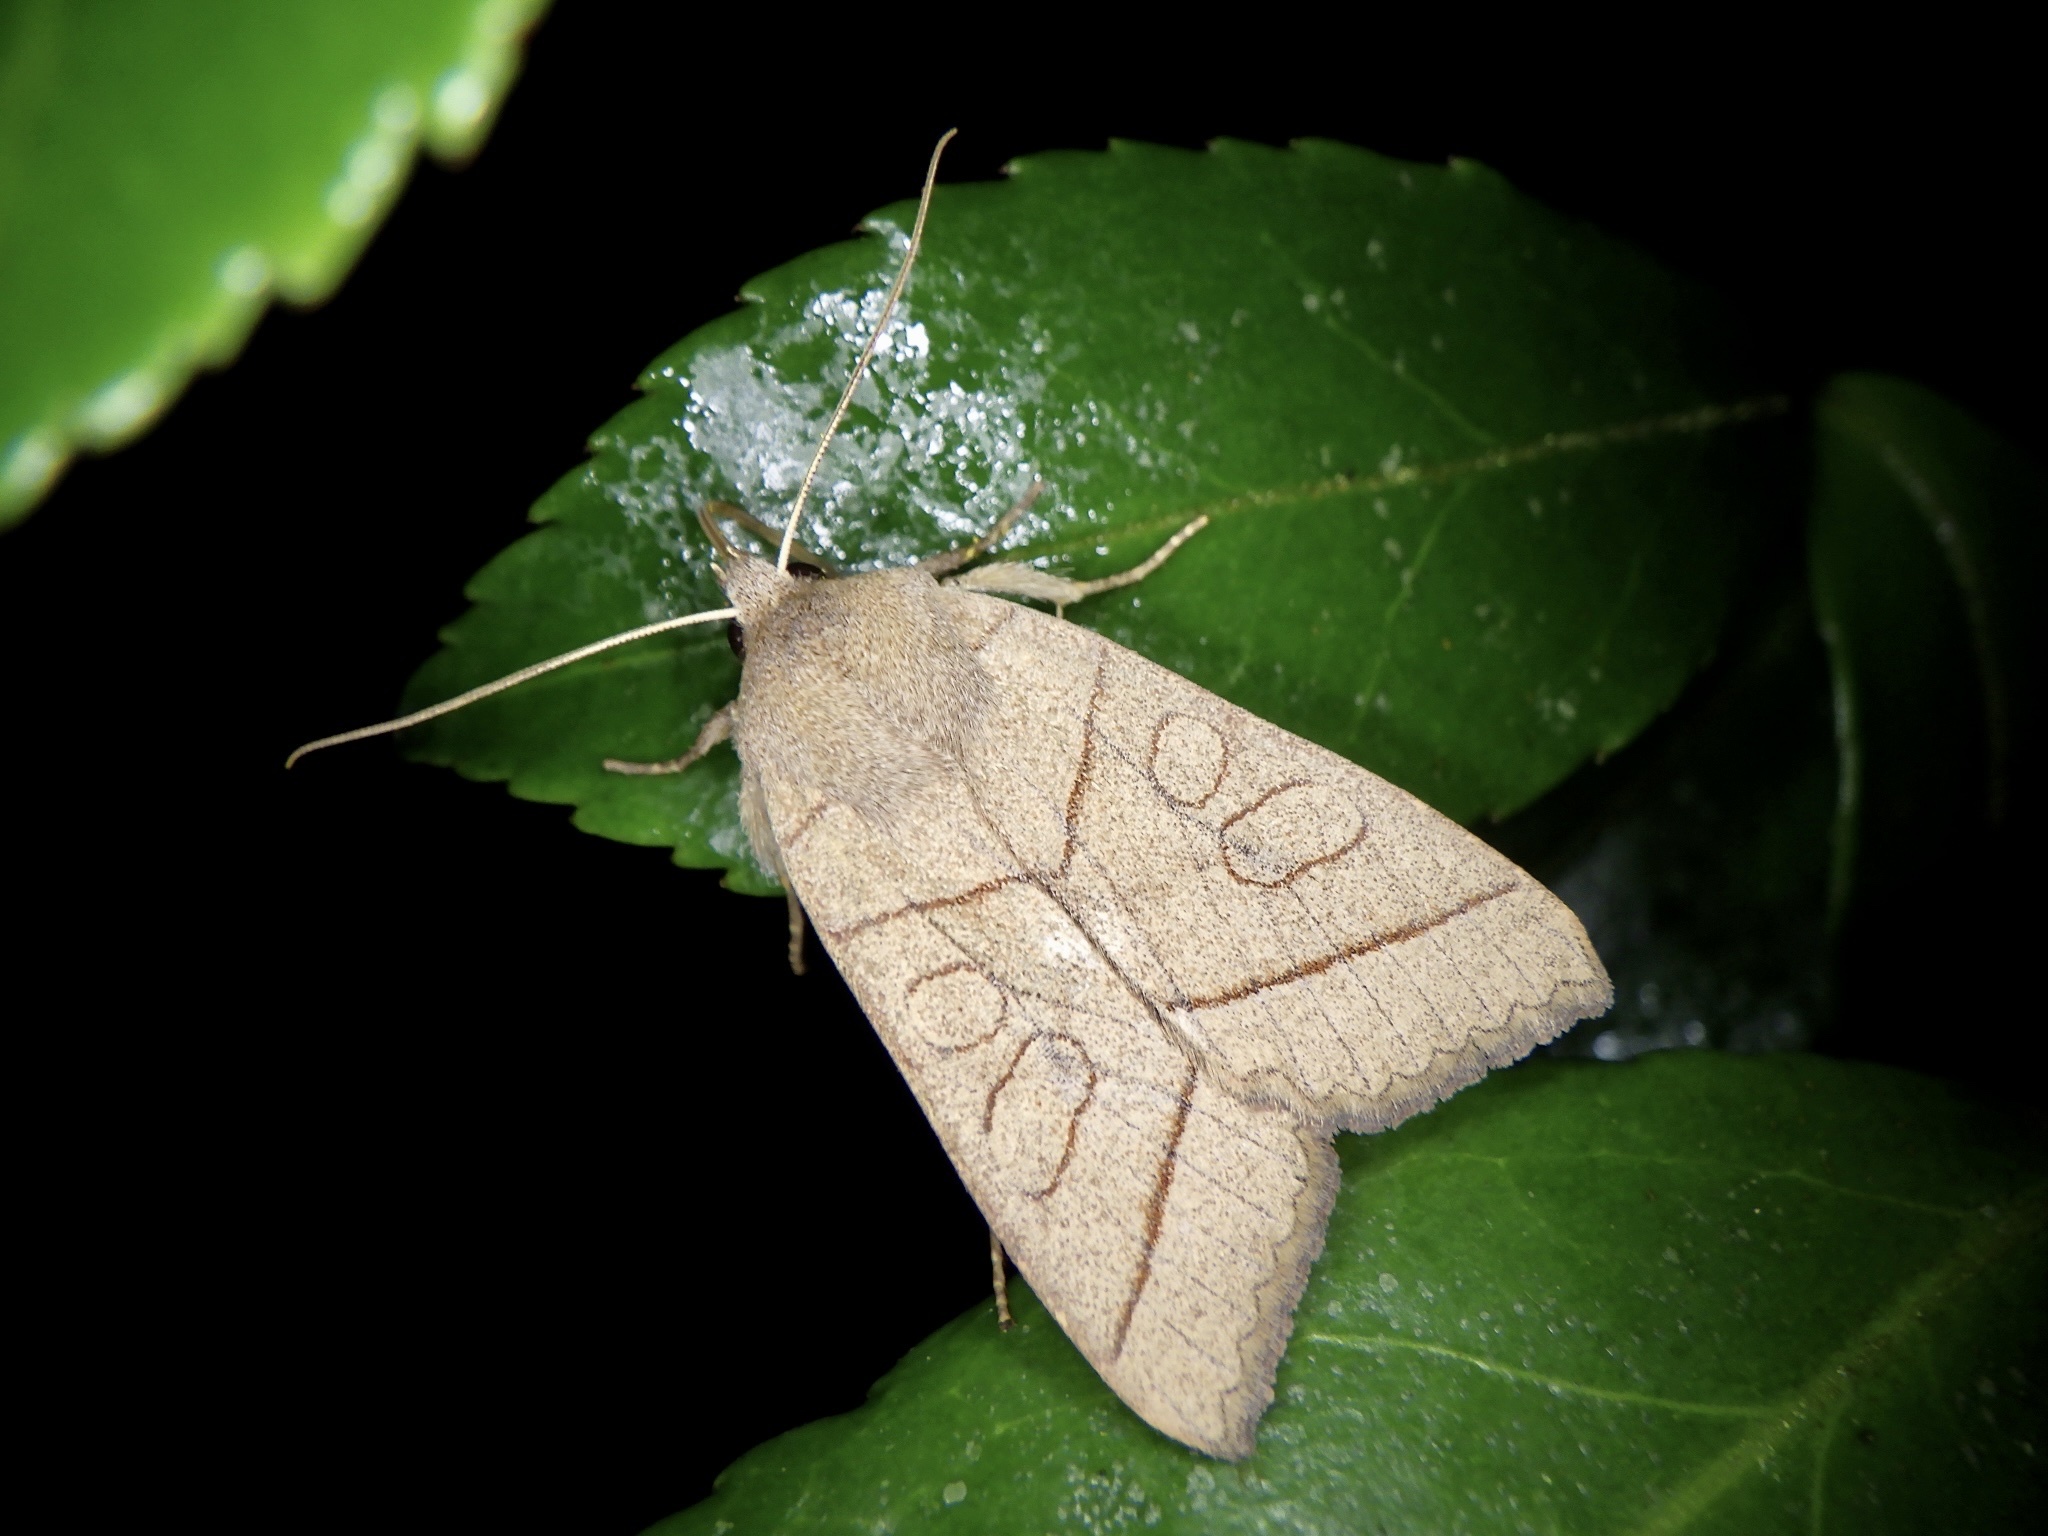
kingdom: Animalia
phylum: Arthropoda
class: Insecta
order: Lepidoptera
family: Noctuidae
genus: Telorta
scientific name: Telorta divergens
